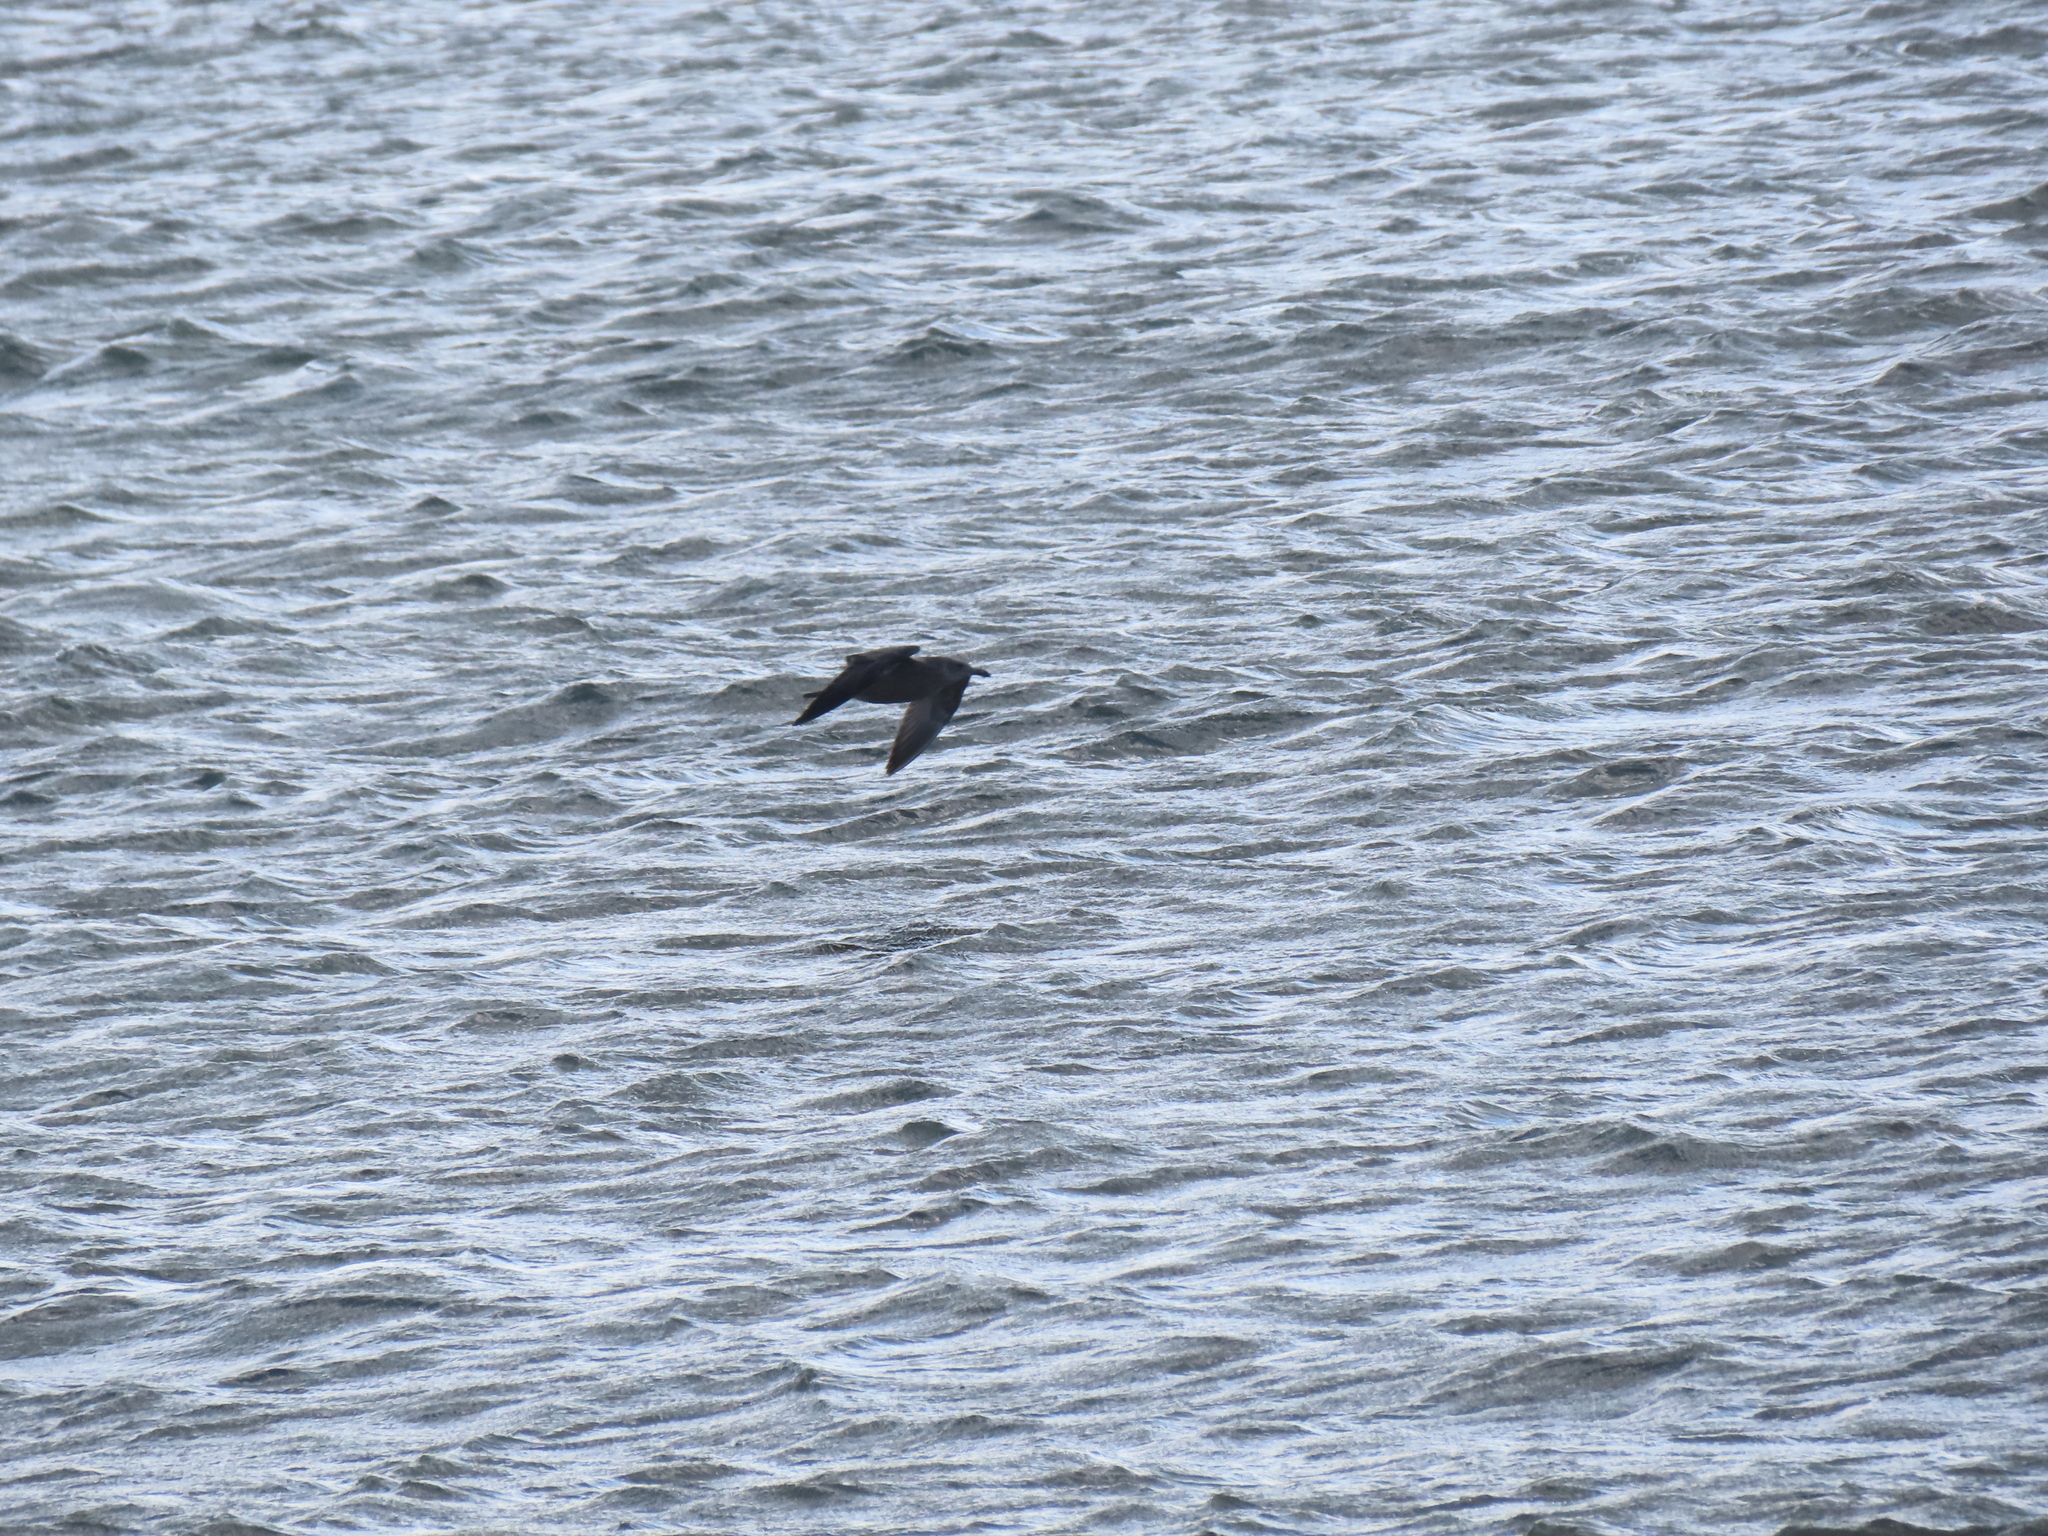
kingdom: Animalia
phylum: Chordata
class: Aves
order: Charadriiformes
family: Laridae
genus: Larus
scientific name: Larus argentatus
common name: Herring gull
